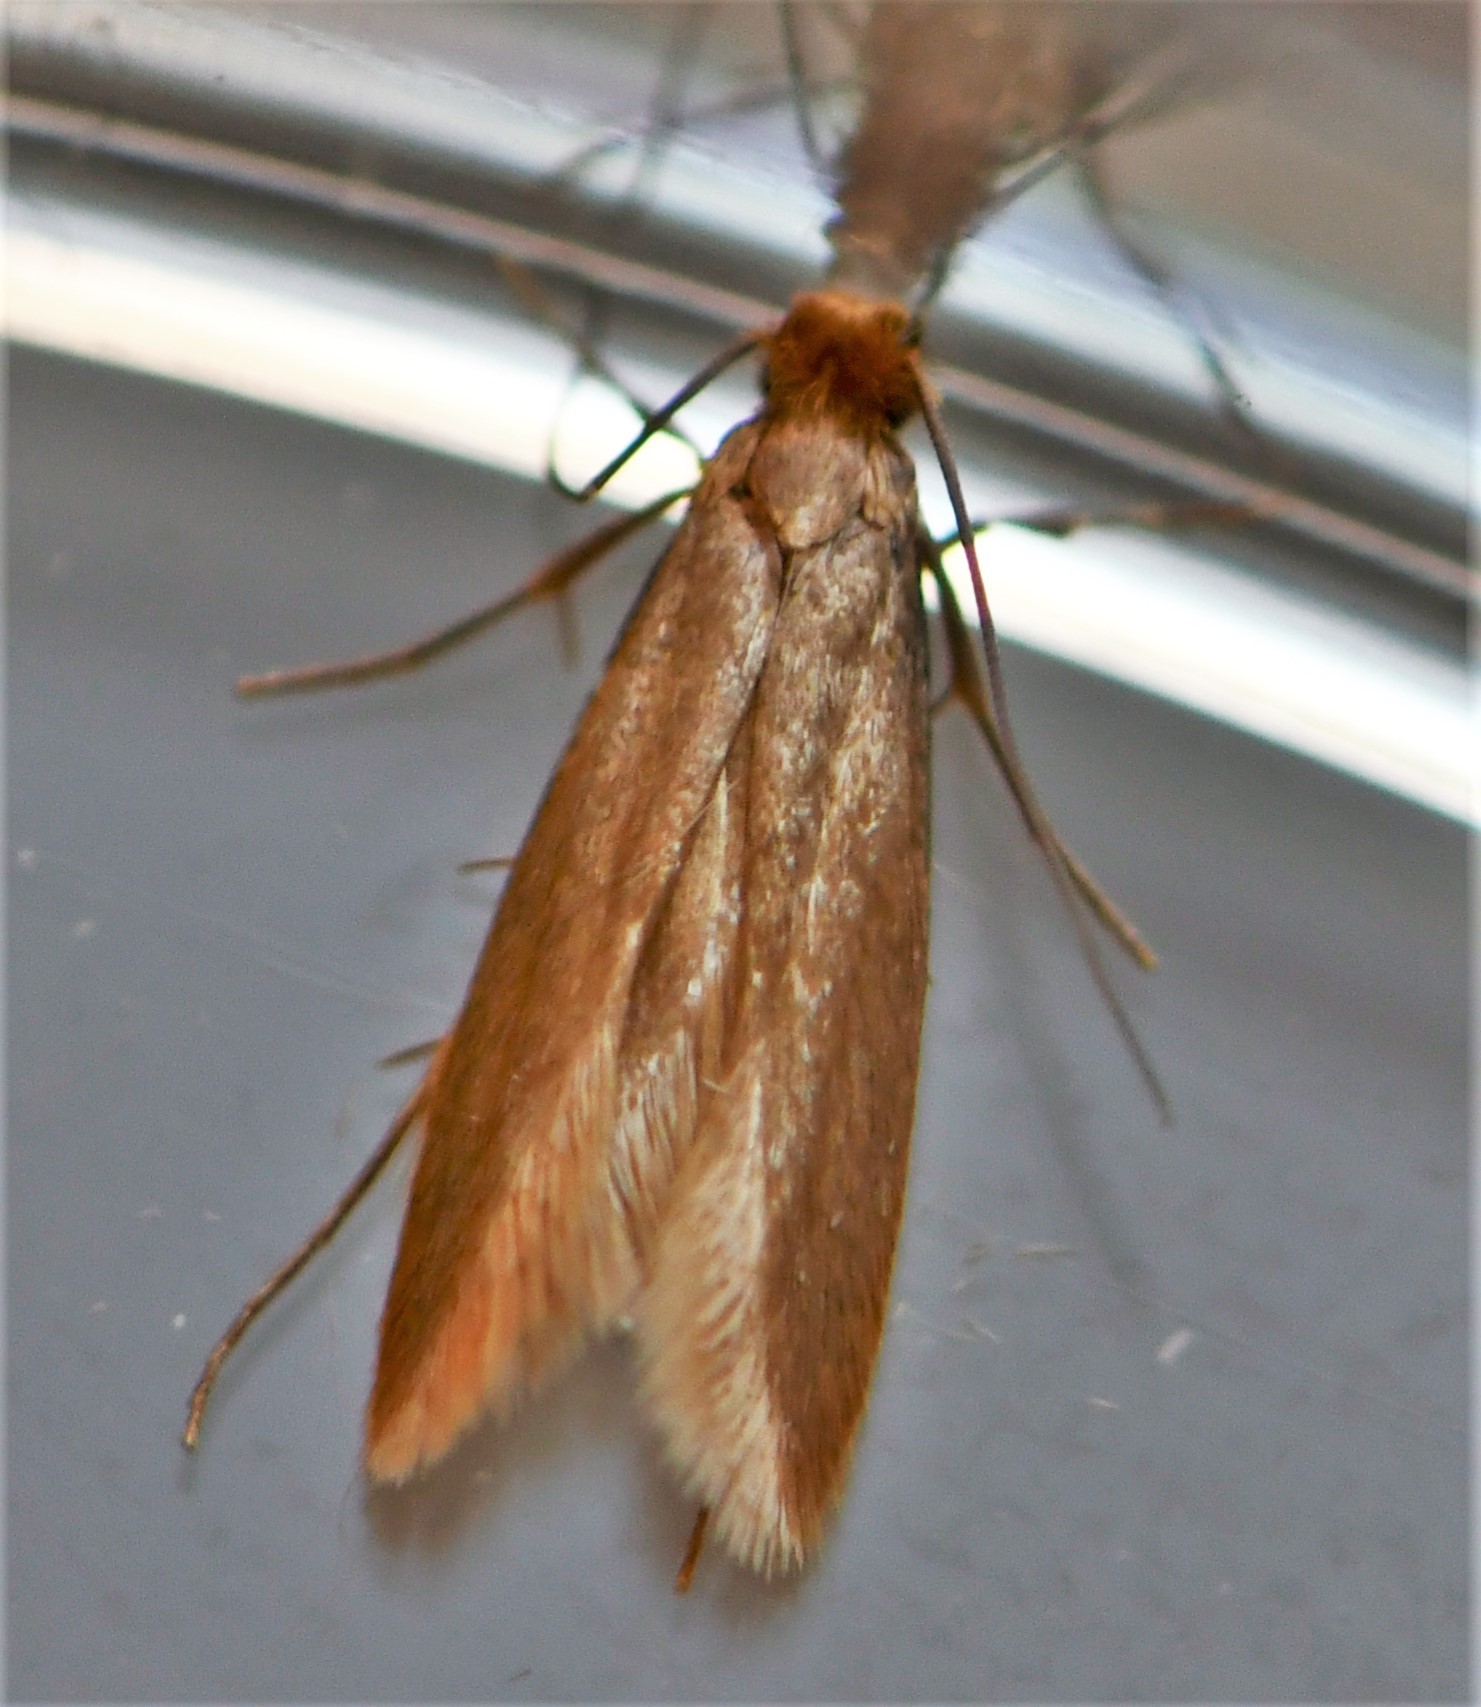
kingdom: Animalia
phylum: Arthropoda
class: Insecta
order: Lepidoptera
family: Tineidae
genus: Tineola
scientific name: Tineola bisselliella
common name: Webbing clothes moth
